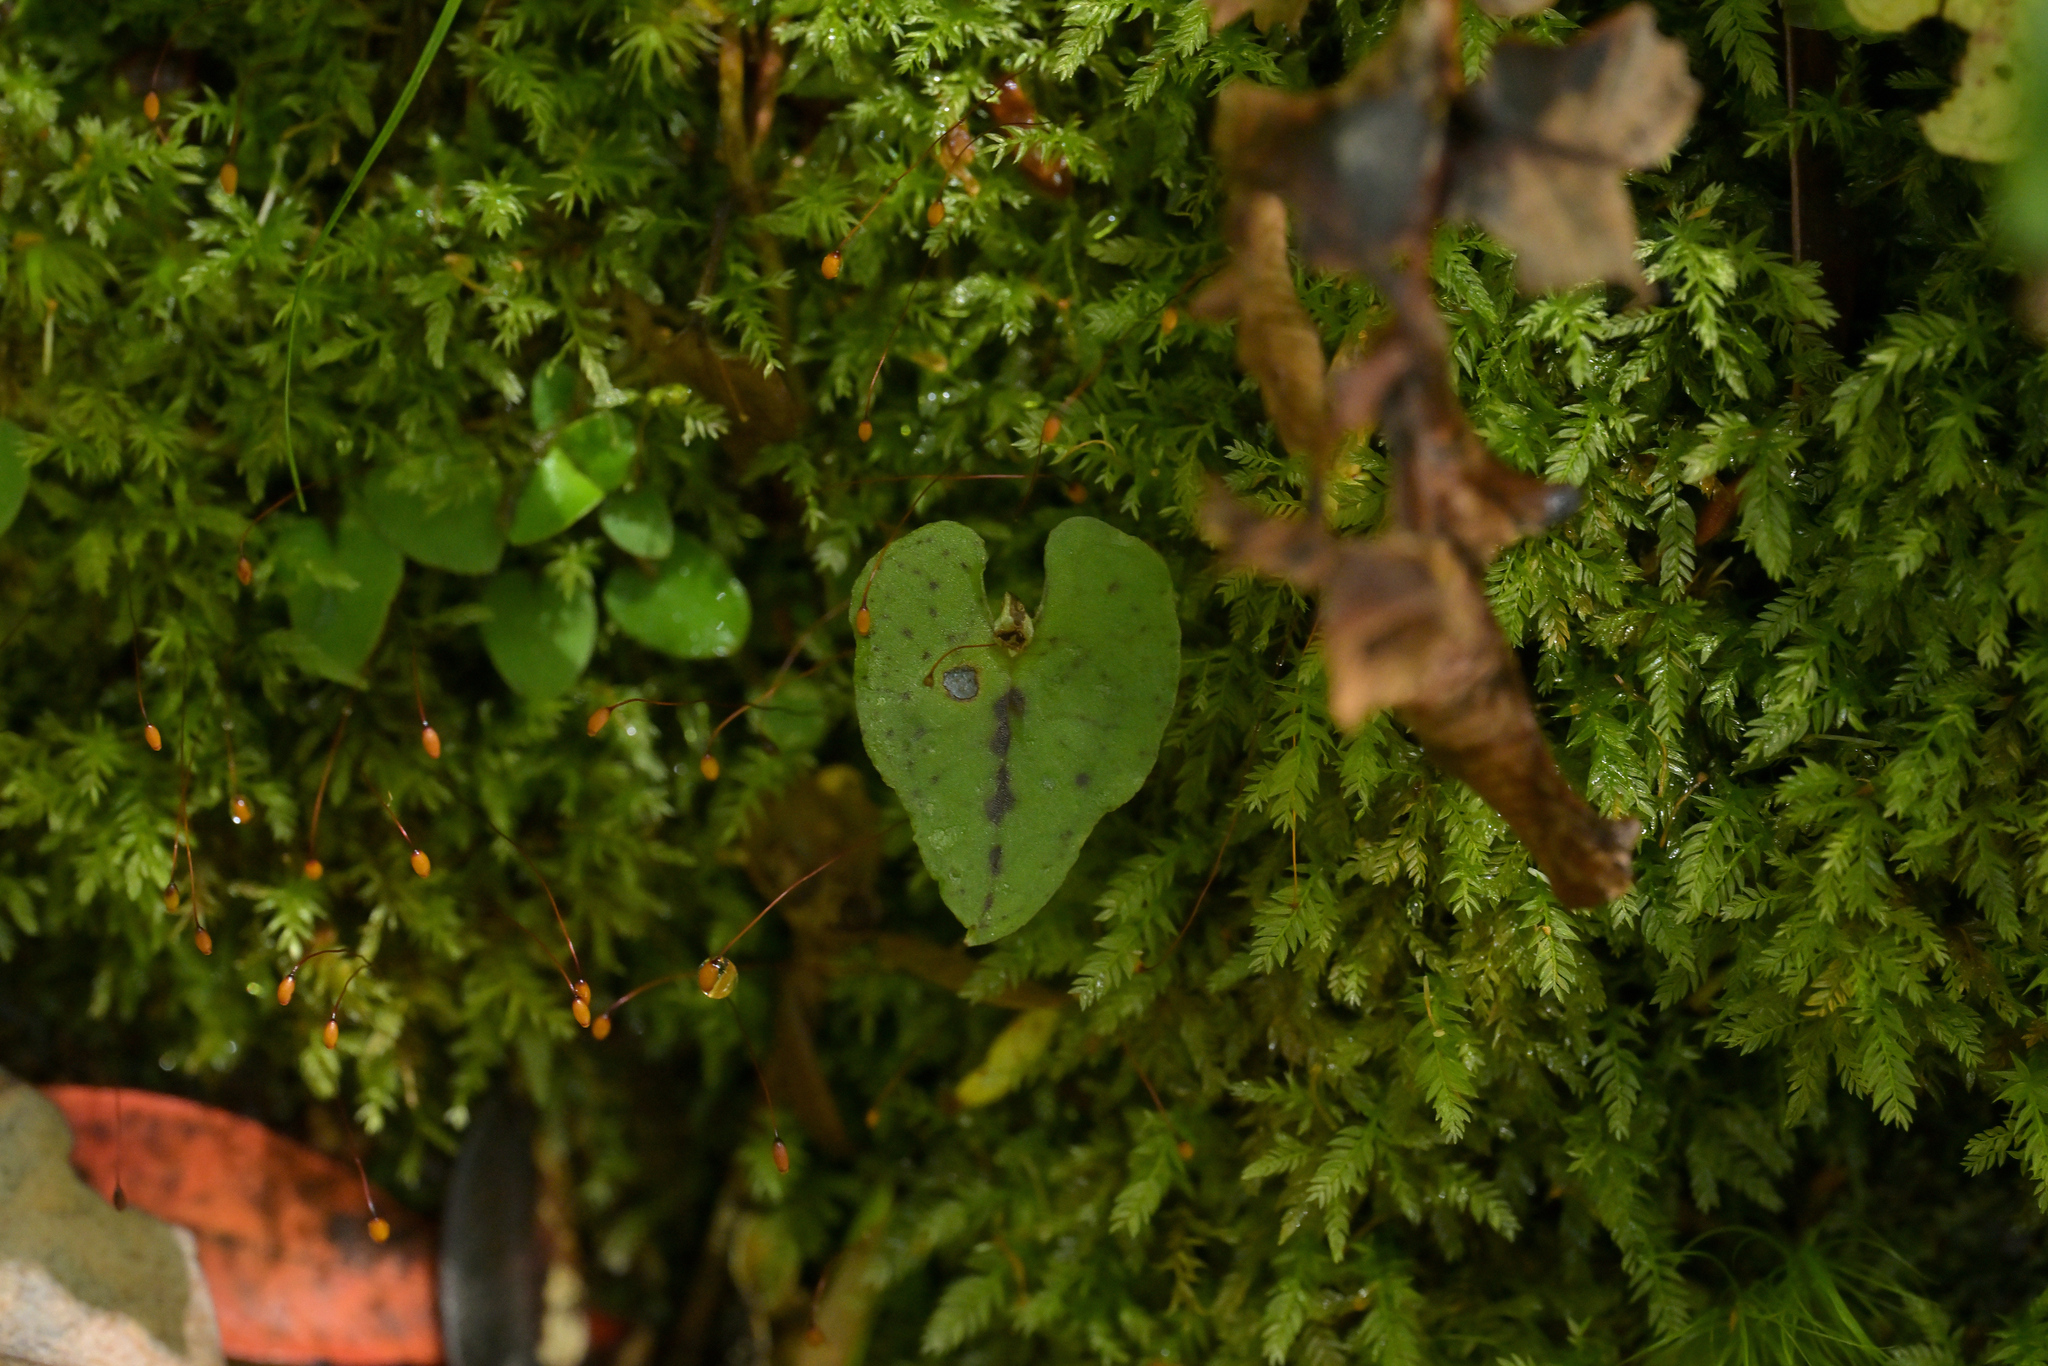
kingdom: Plantae
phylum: Tracheophyta
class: Liliopsida
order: Asparagales
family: Orchidaceae
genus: Corybas
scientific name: Corybas acuminatus
